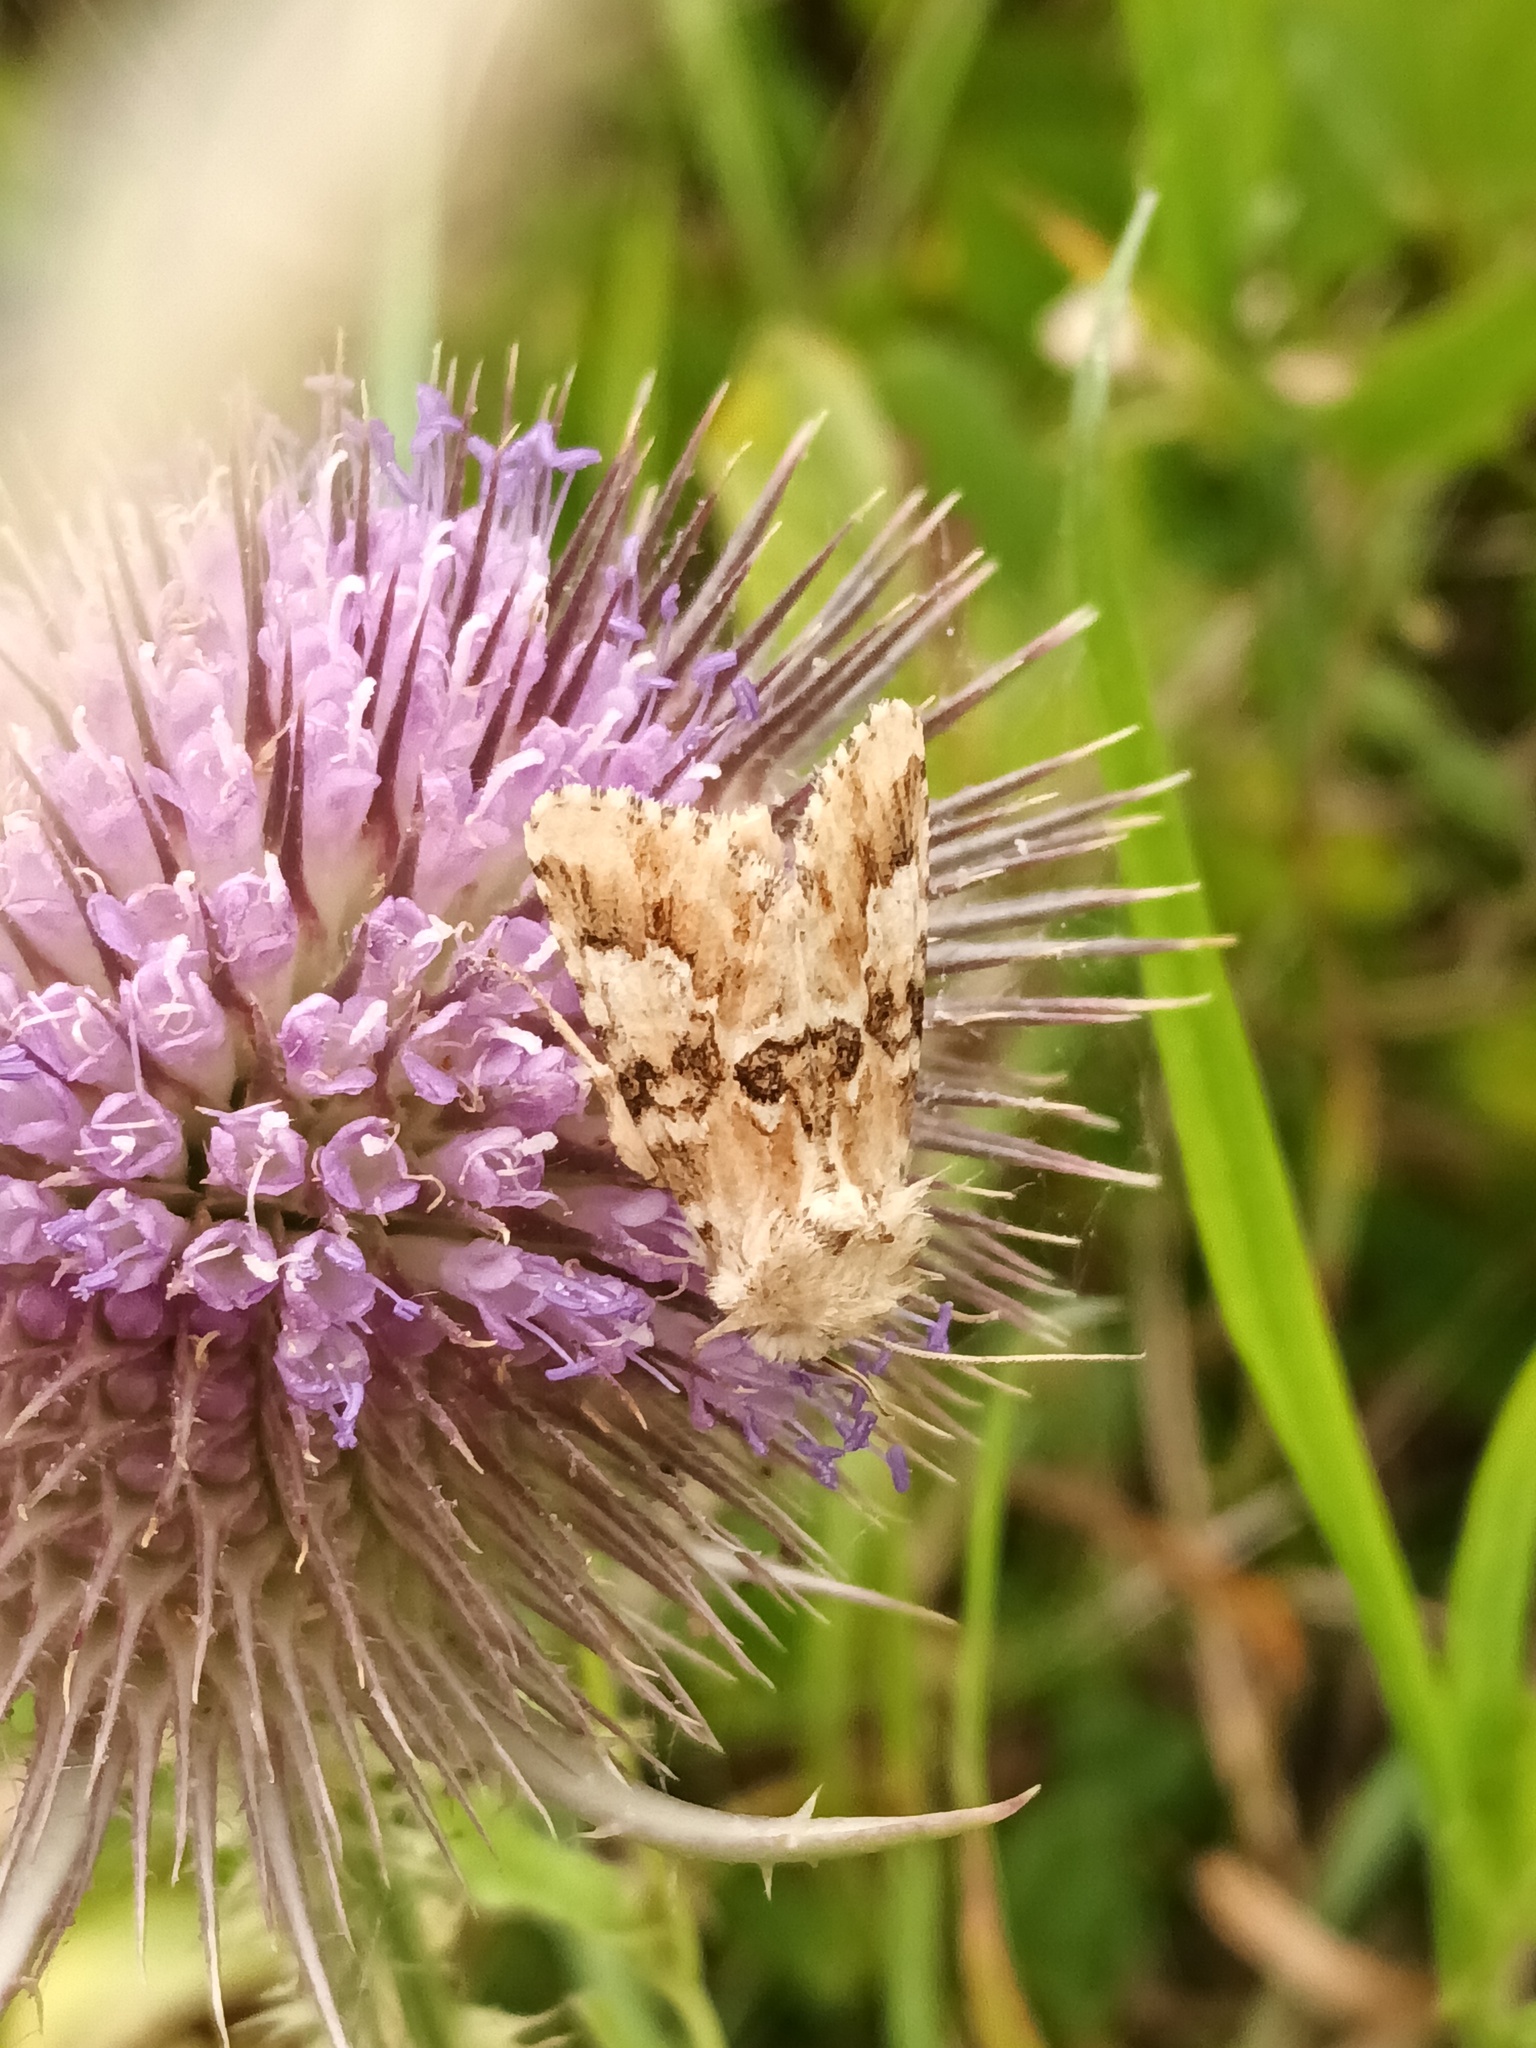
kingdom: Animalia
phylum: Arthropoda
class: Insecta
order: Lepidoptera
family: Noctuidae
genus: Eremobia
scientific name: Eremobia ochroleuca
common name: Dusky sallow
